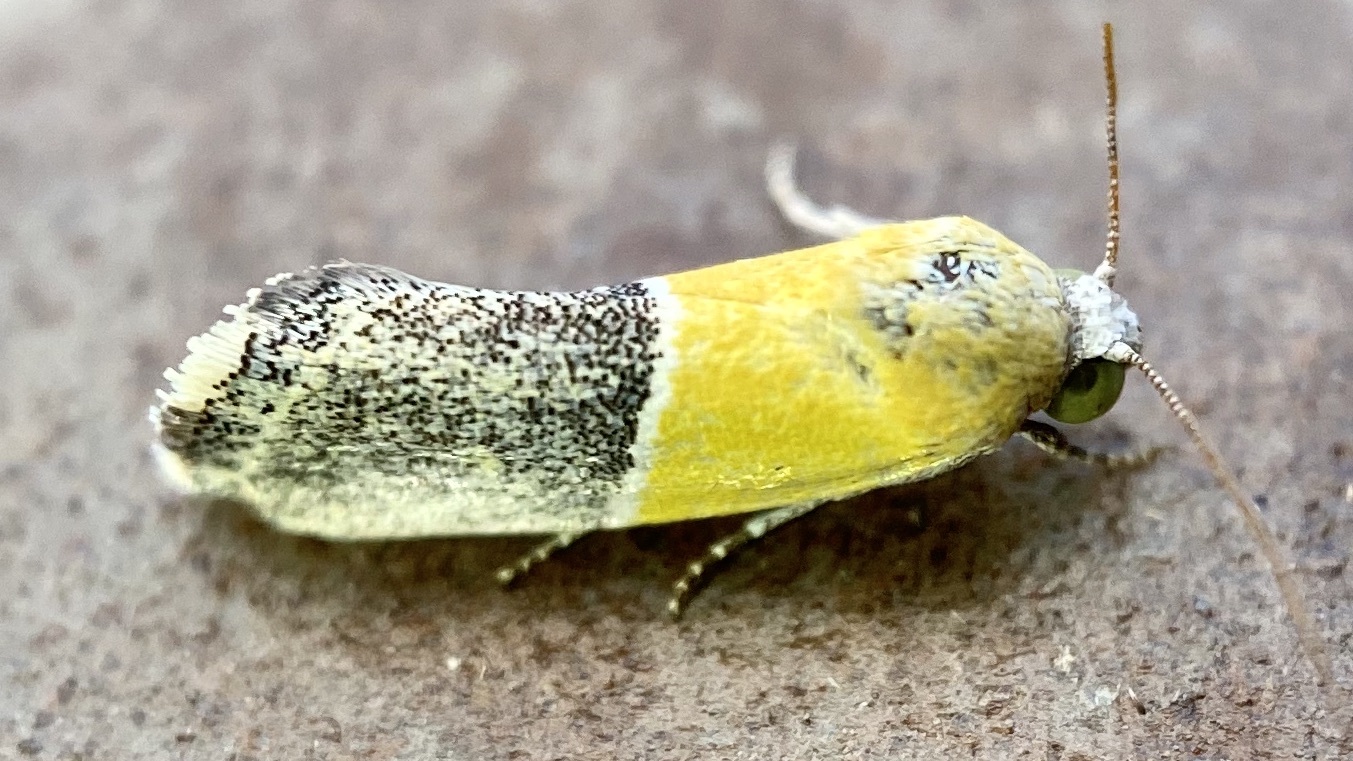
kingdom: Animalia
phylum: Arthropoda
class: Insecta
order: Lepidoptera
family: Noctuidae
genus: Acontia
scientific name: Acontia clausula
